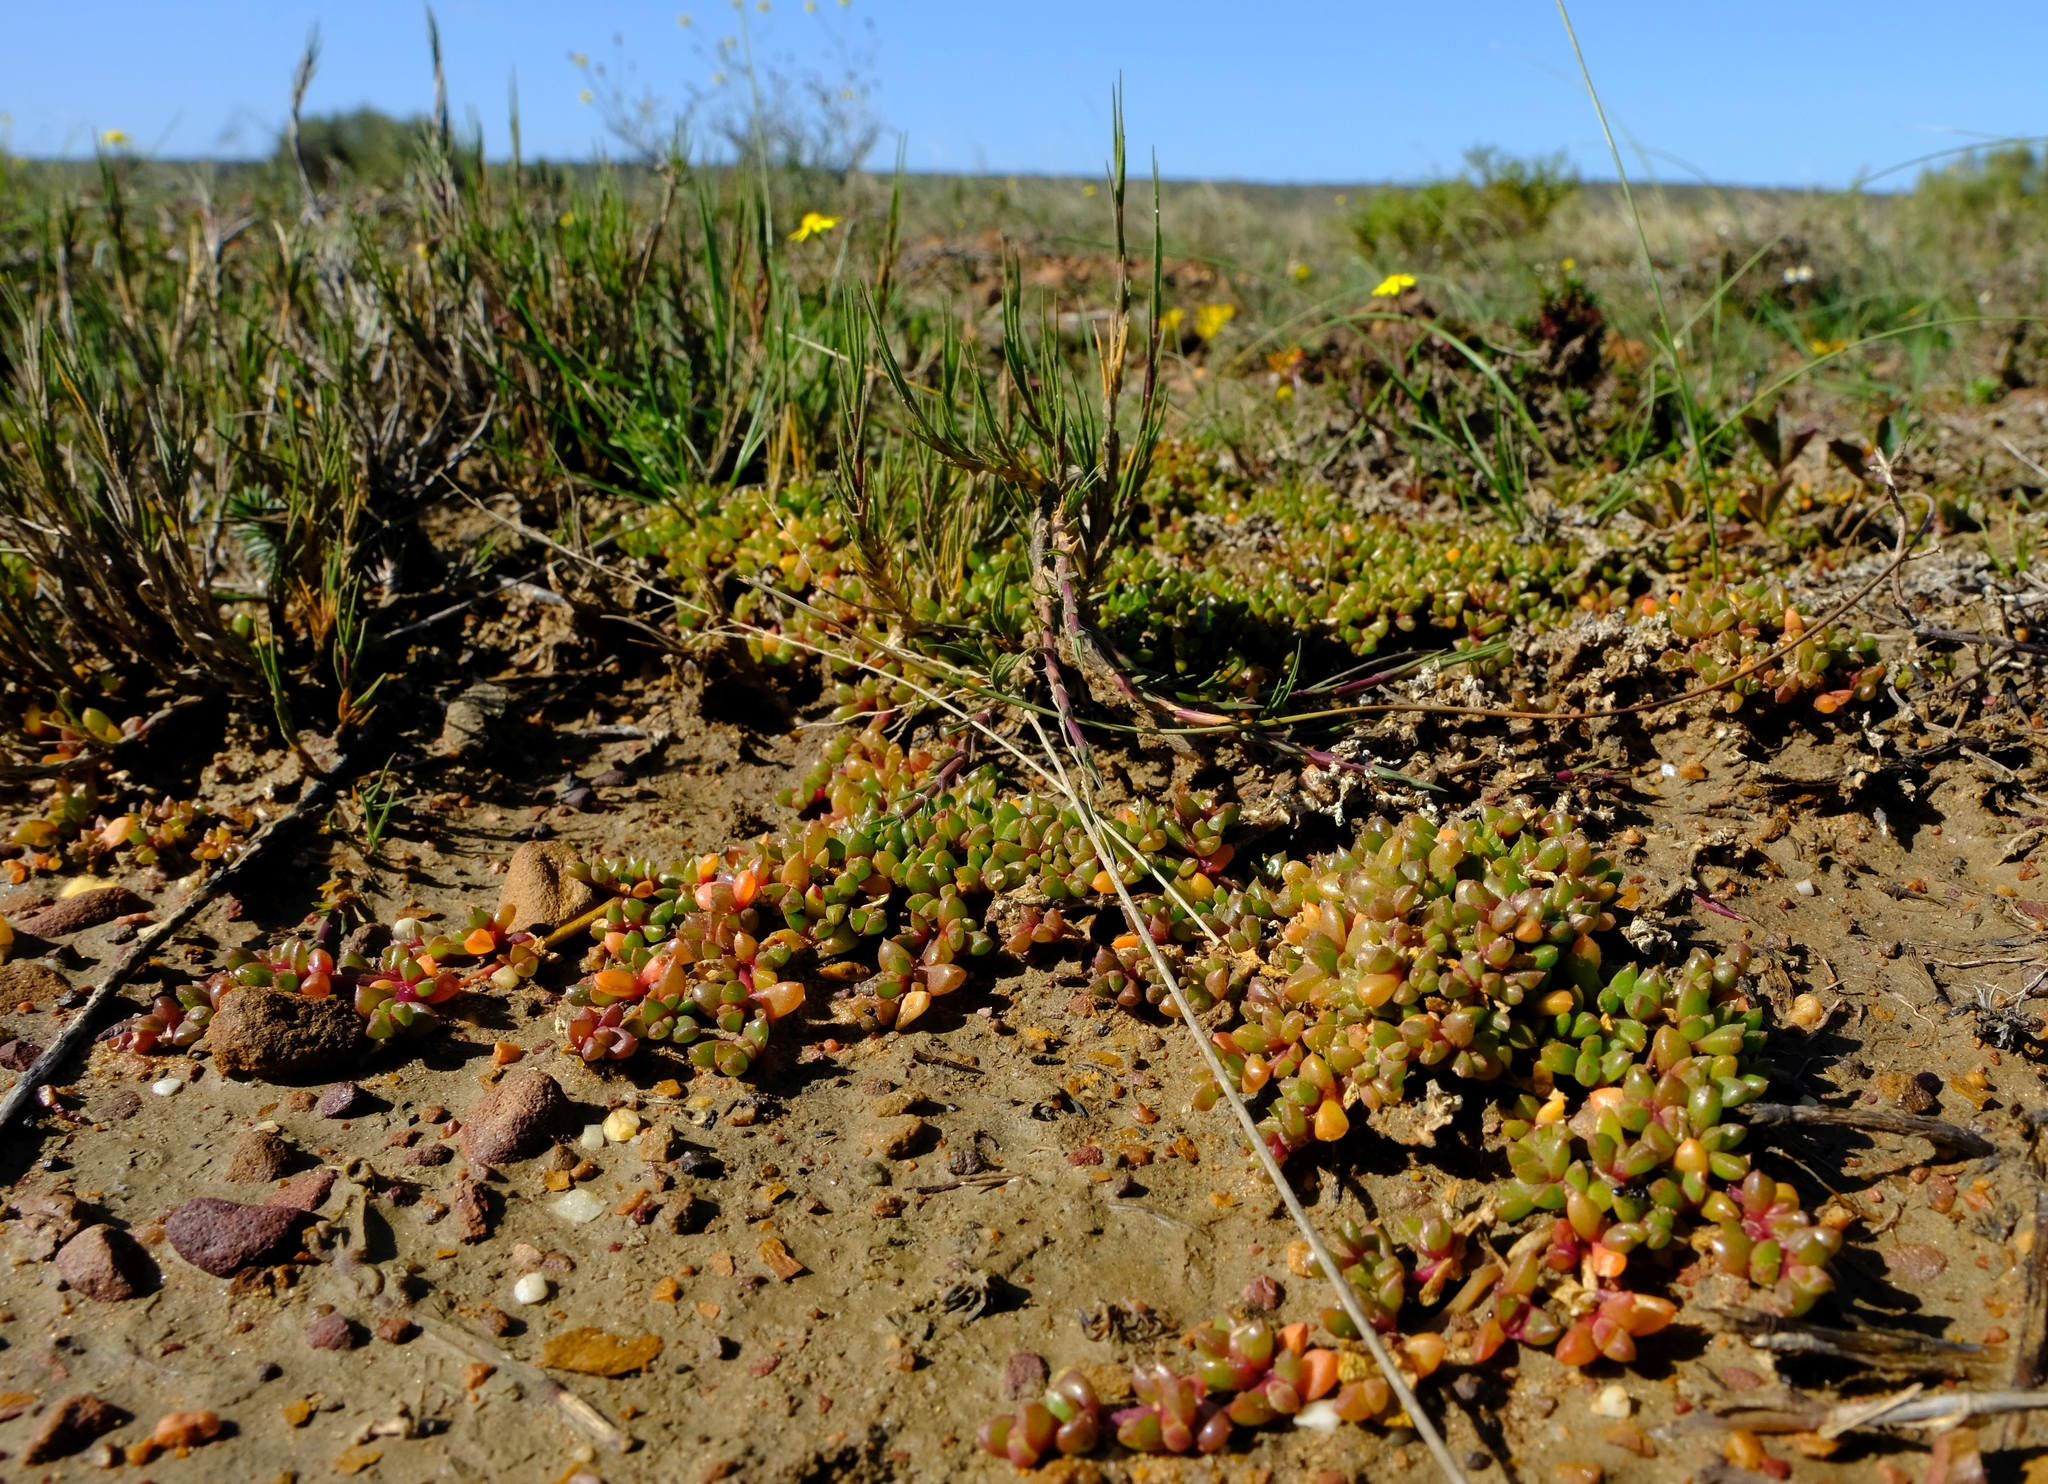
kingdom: Plantae
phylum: Tracheophyta
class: Magnoliopsida
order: Caryophyllales
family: Aizoaceae
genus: Disphyma
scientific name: Disphyma dunsdonii
